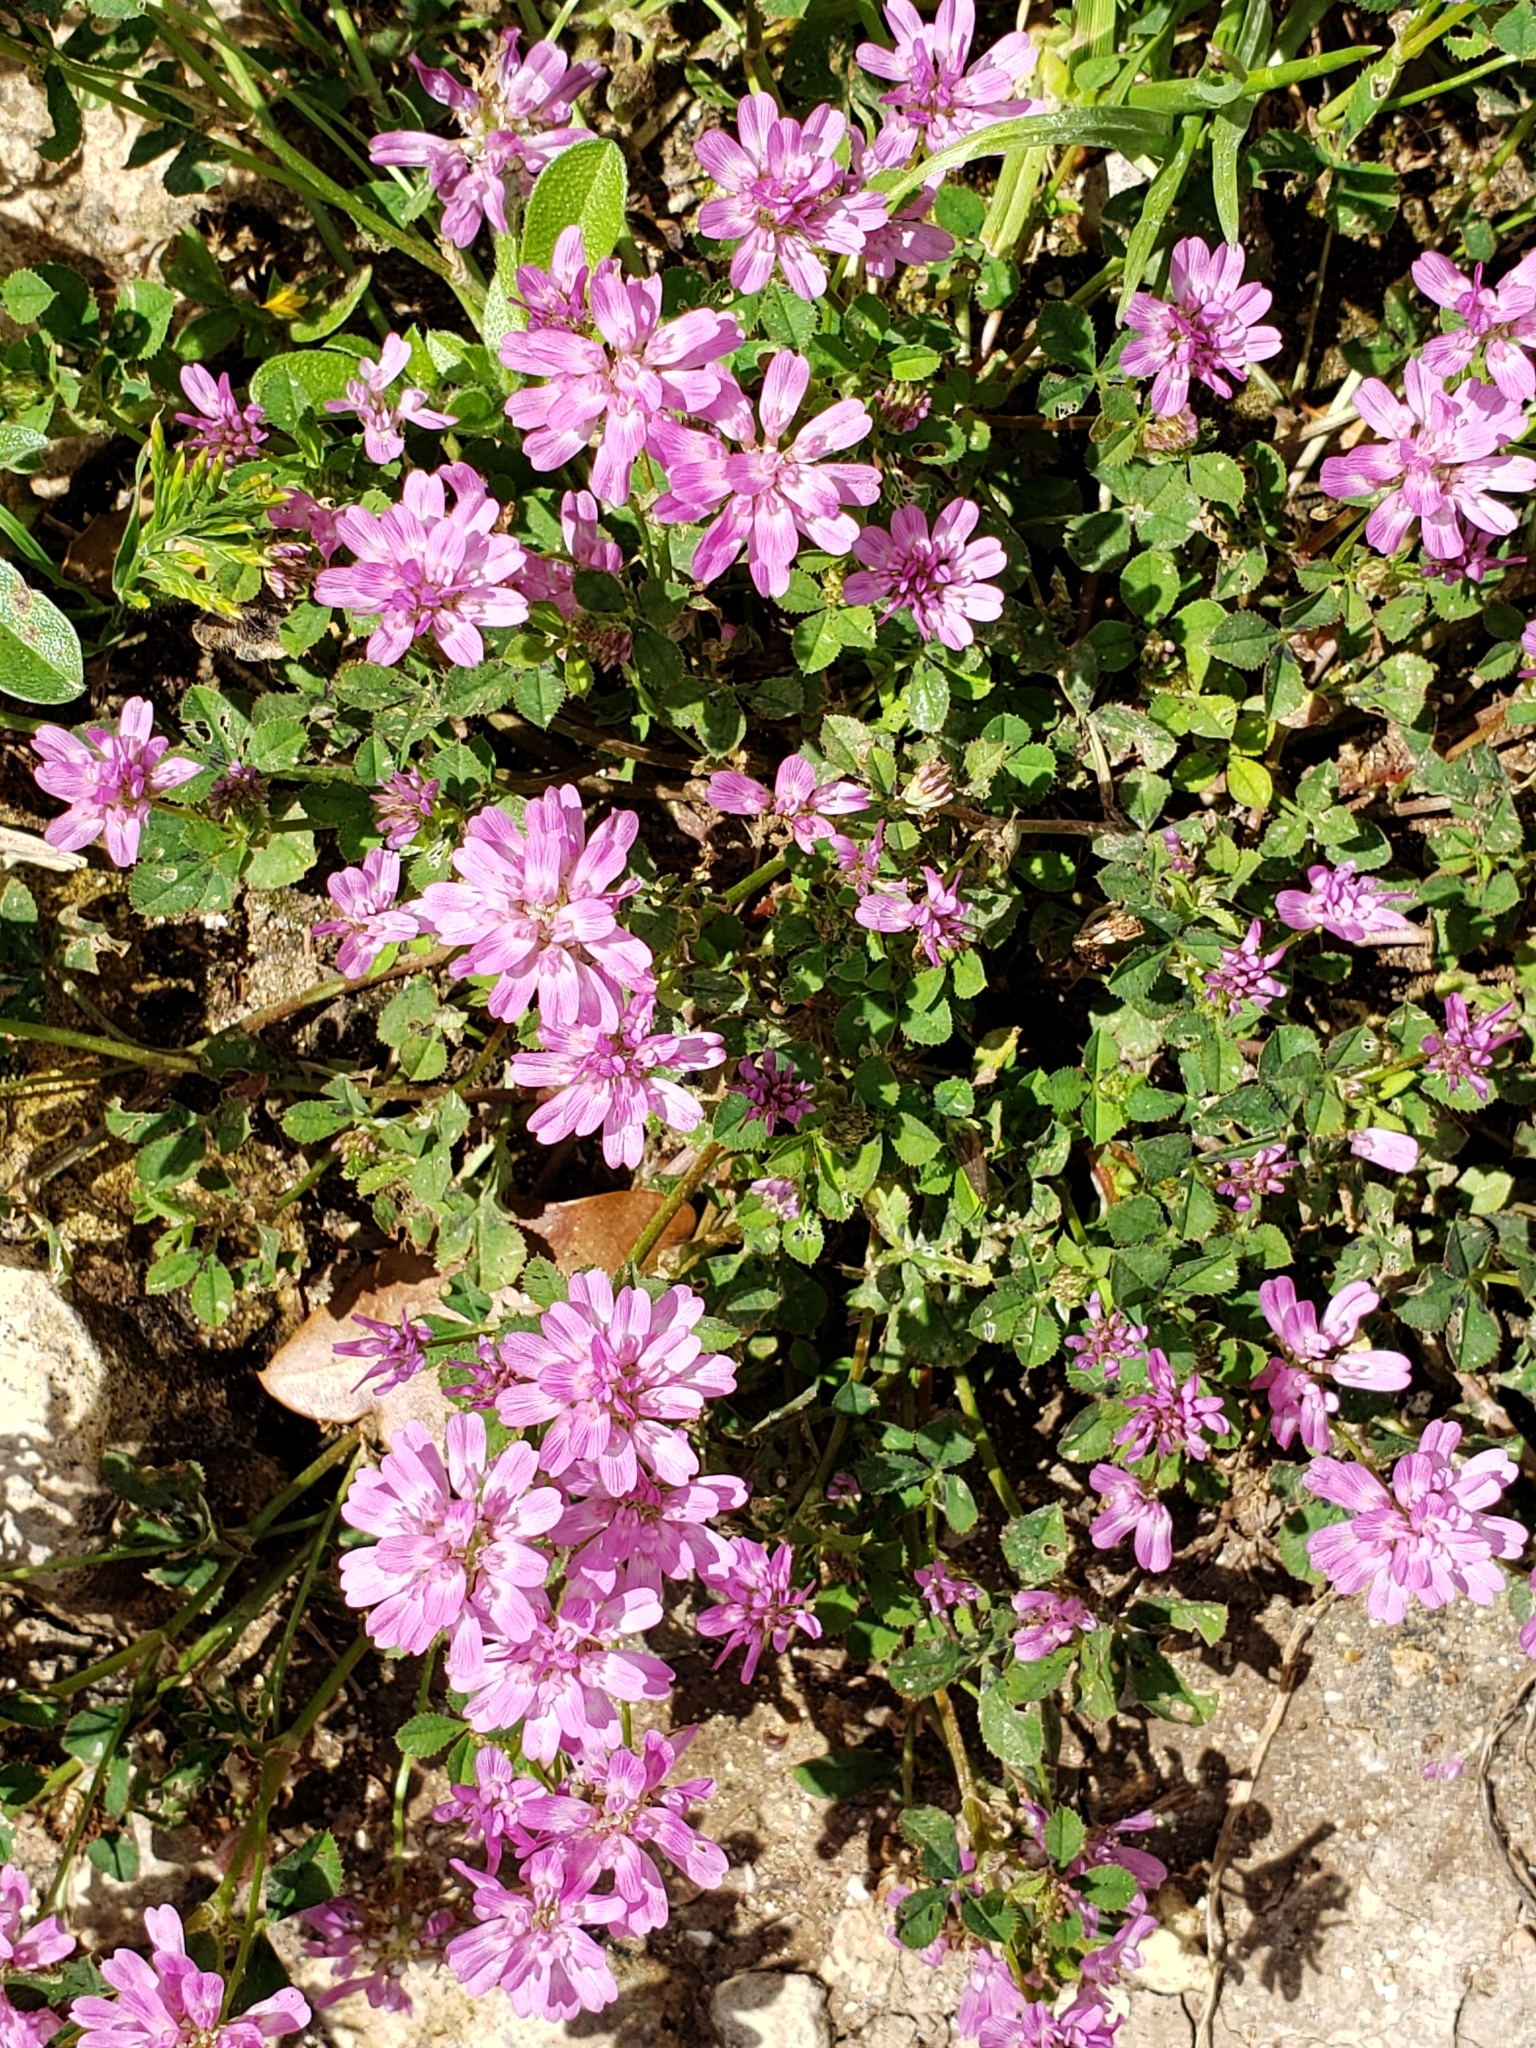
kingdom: Plantae
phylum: Tracheophyta
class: Magnoliopsida
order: Fabales
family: Fabaceae
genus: Trifolium
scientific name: Trifolium resupinatum
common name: Reversed clover
